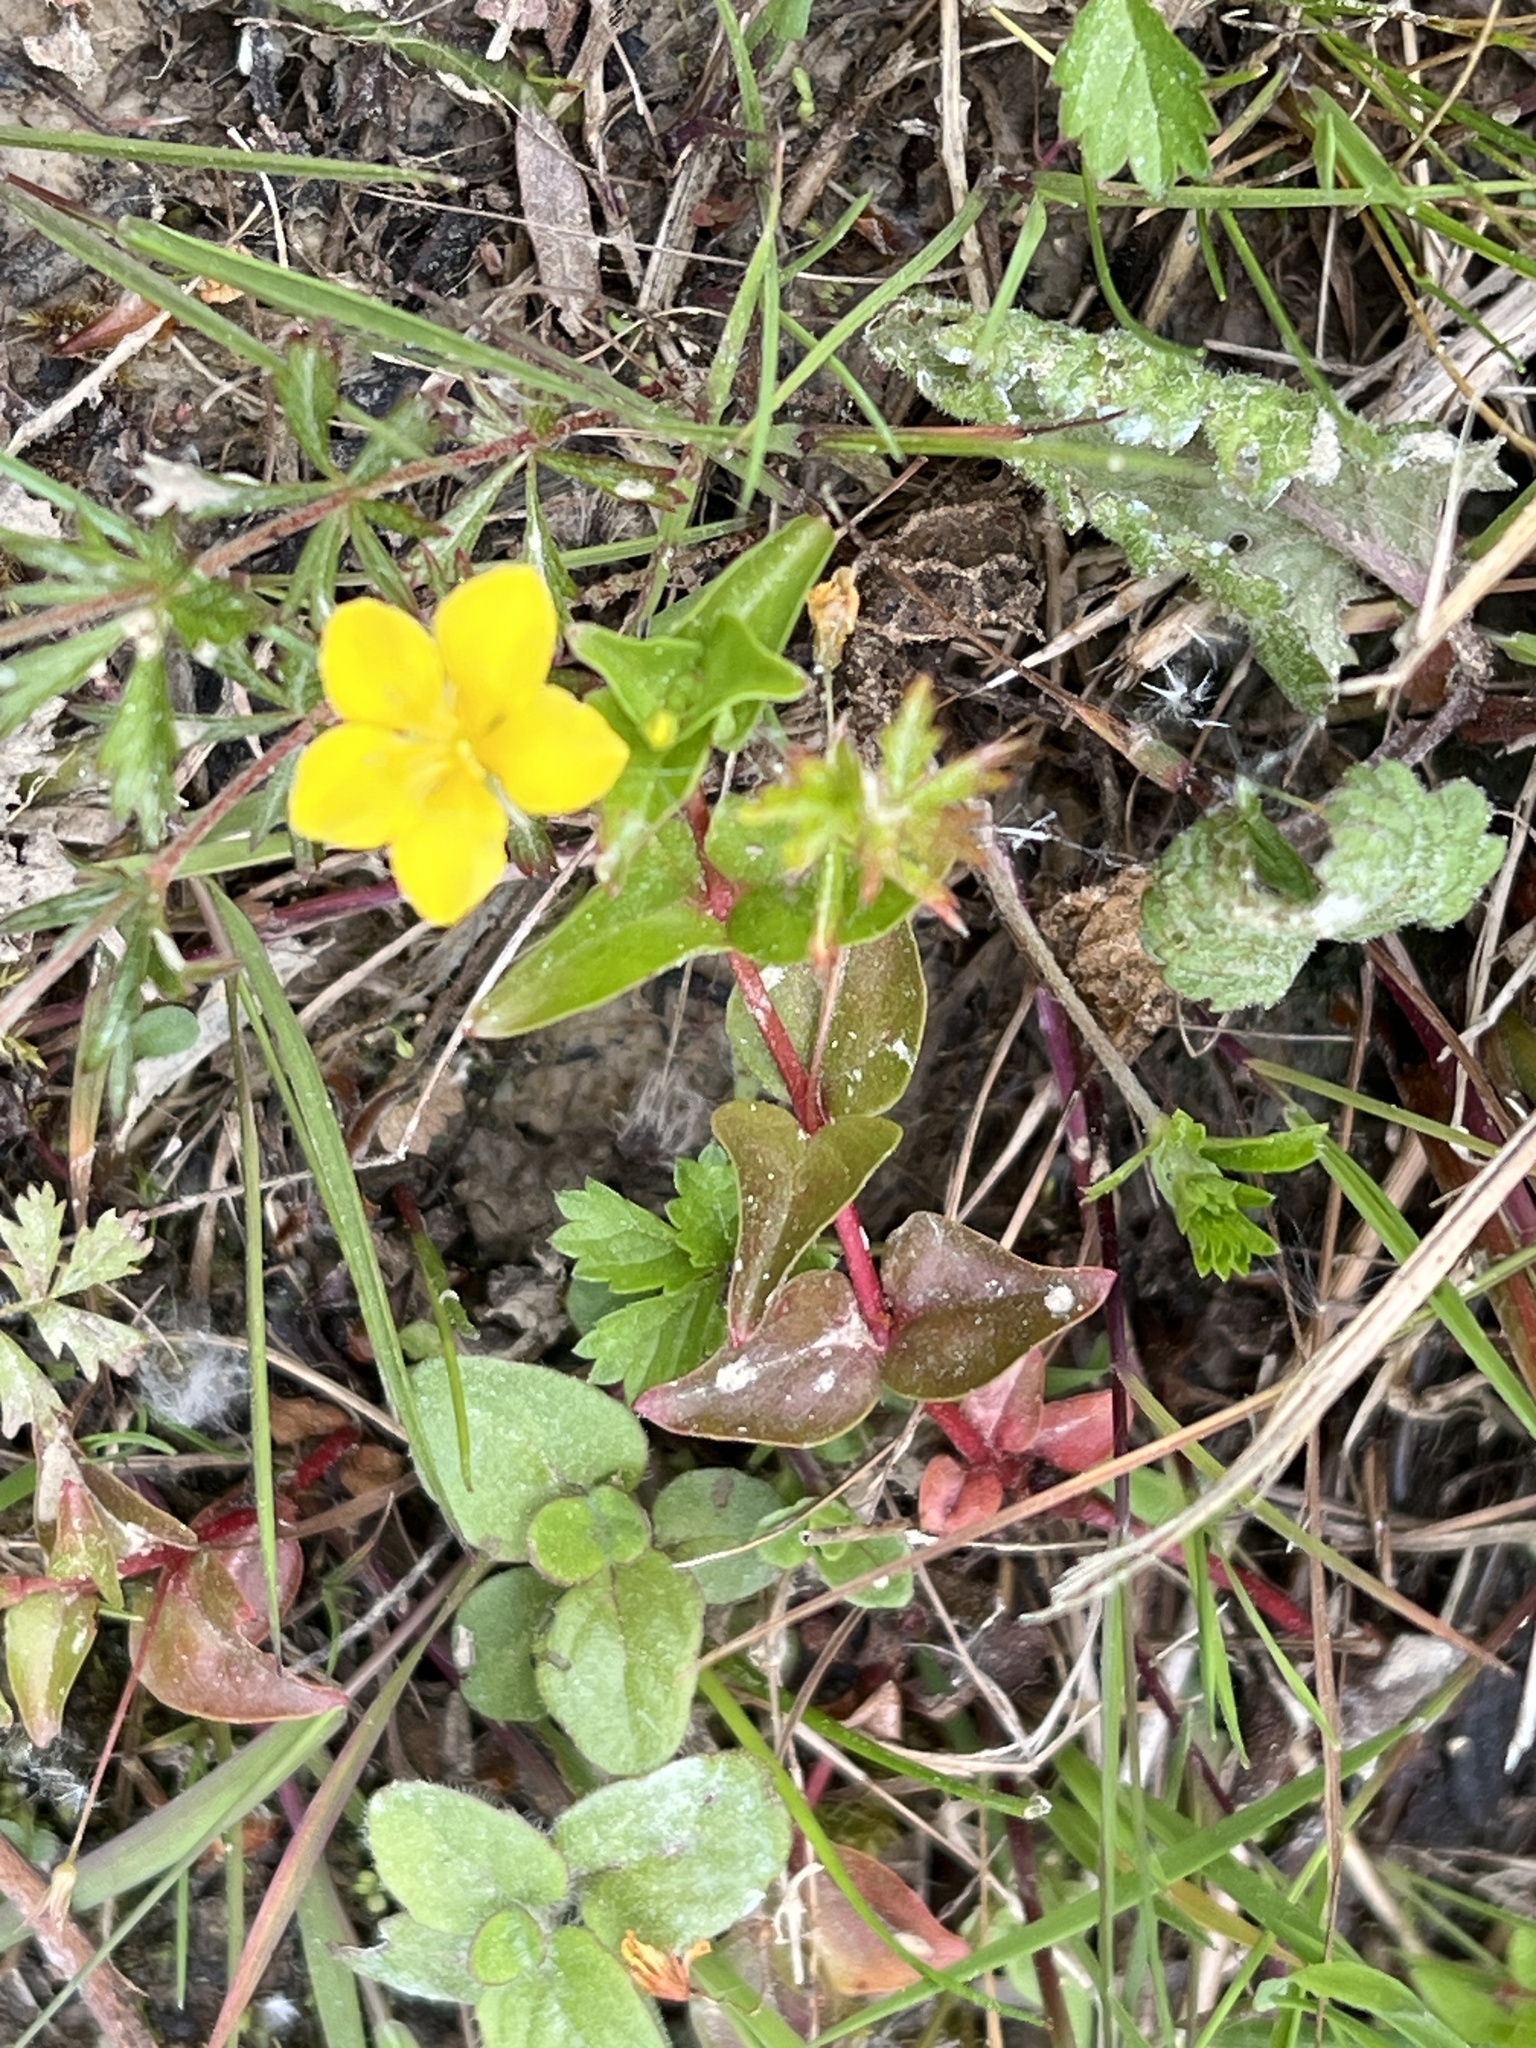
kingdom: Plantae
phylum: Tracheophyta
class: Magnoliopsida
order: Ericales
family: Primulaceae
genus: Lysimachia
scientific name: Lysimachia nemorum
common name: Yellow pimpernel
